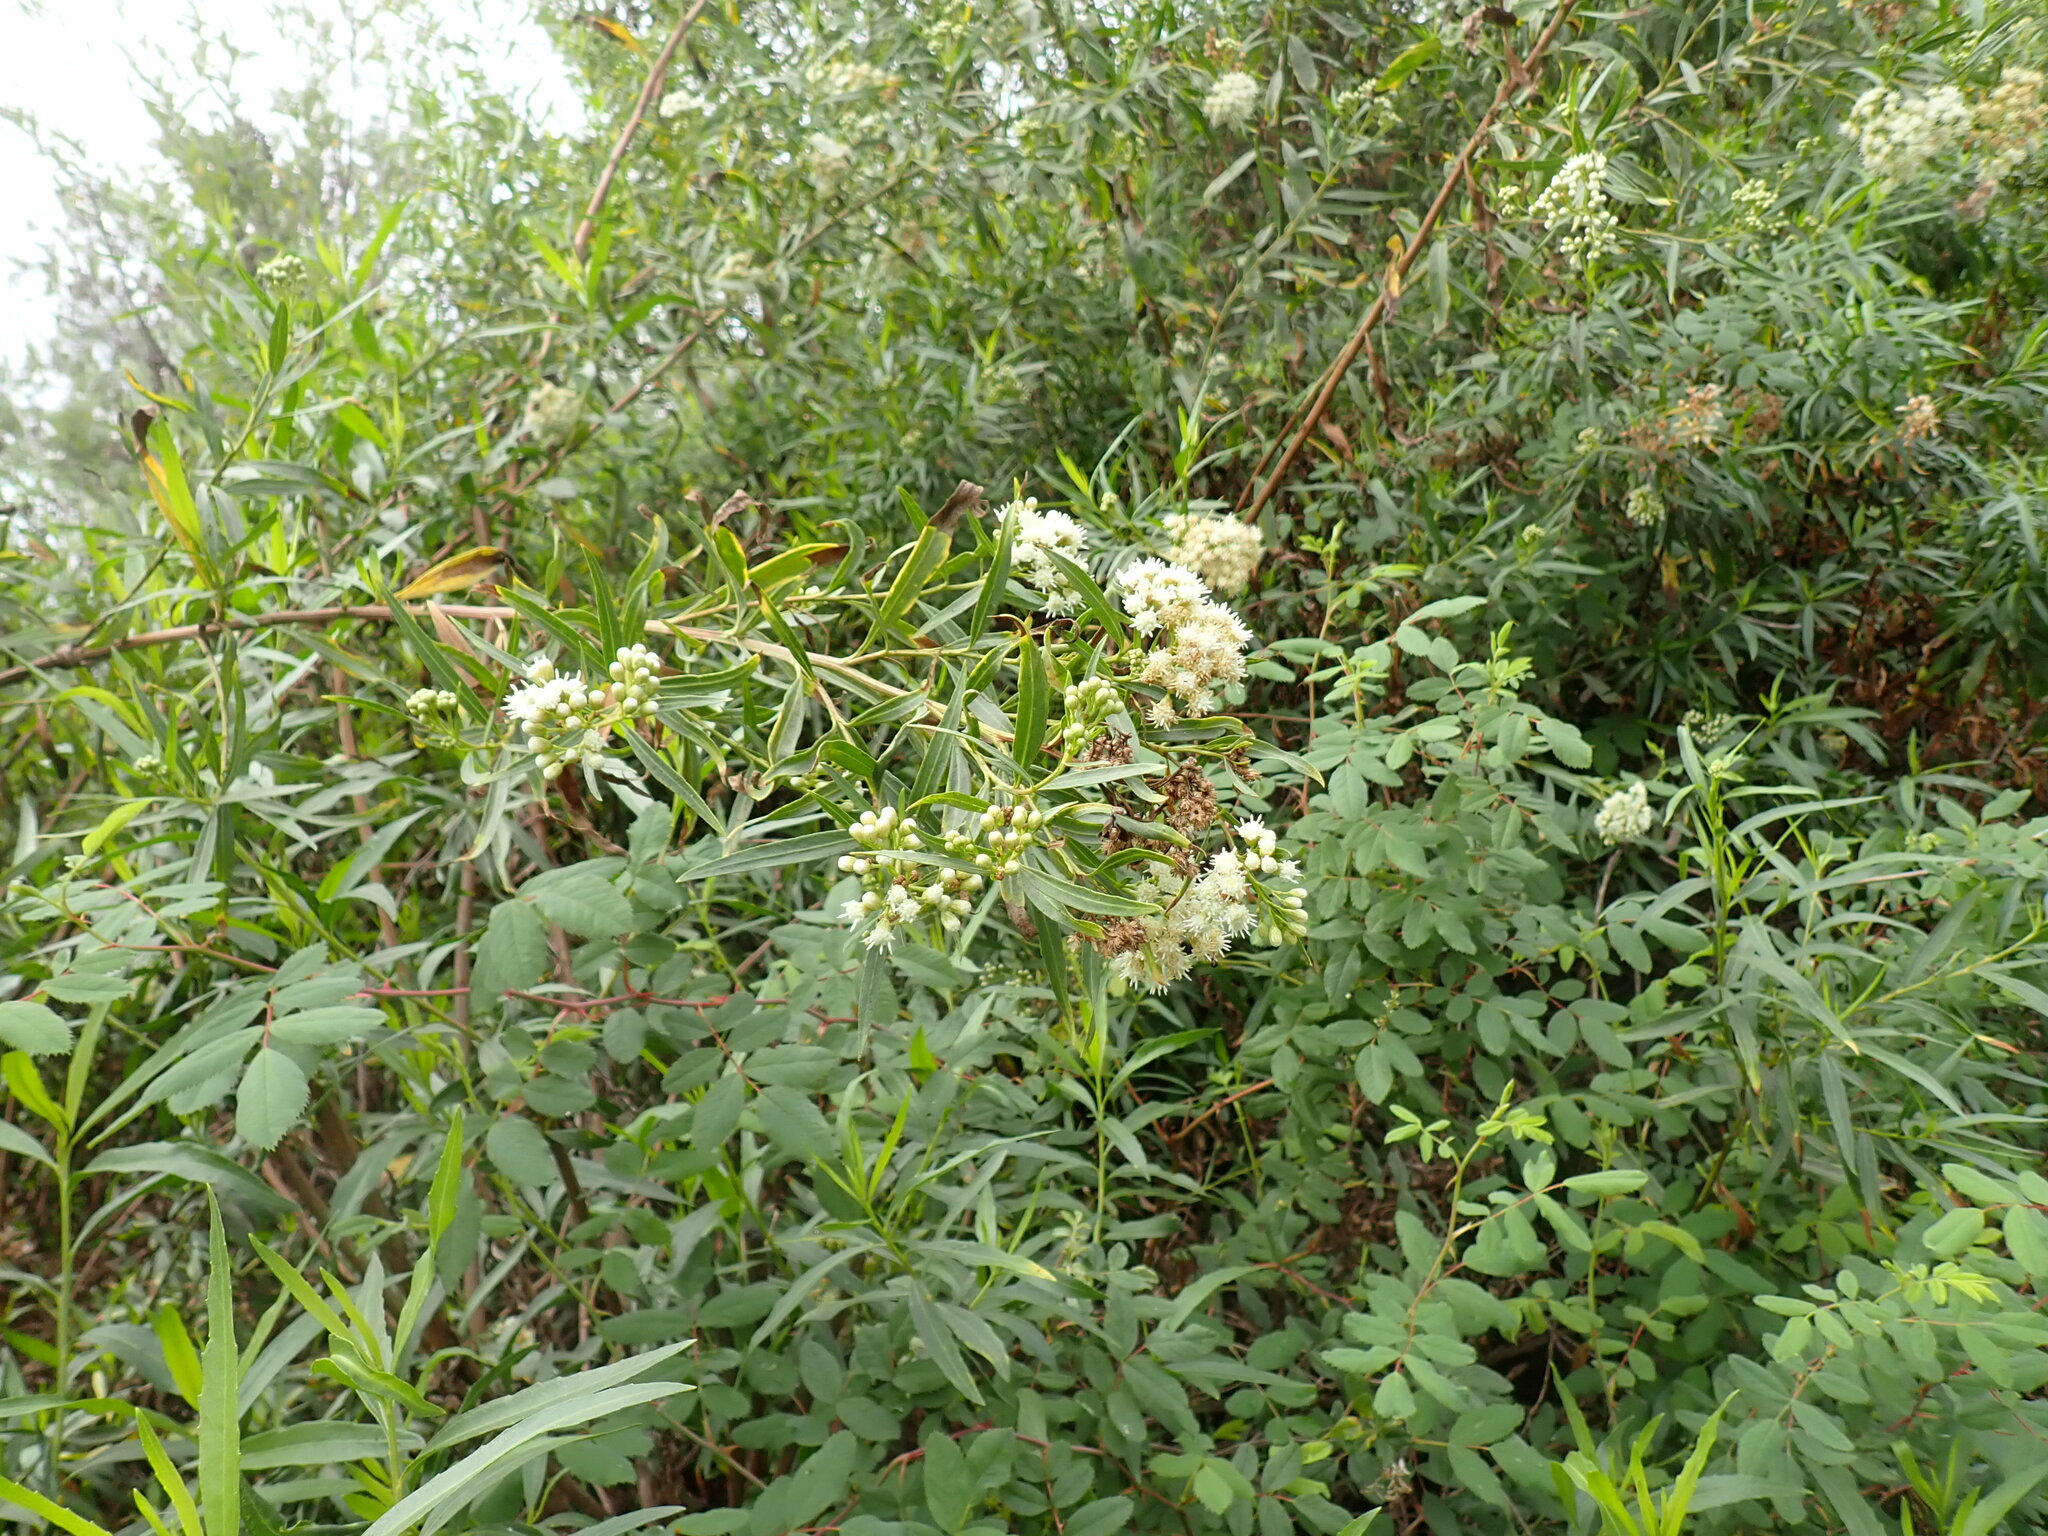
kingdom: Plantae
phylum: Tracheophyta
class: Magnoliopsida
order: Asterales
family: Asteraceae
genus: Baccharis
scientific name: Baccharis salicifolia
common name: Sticky baccharis
